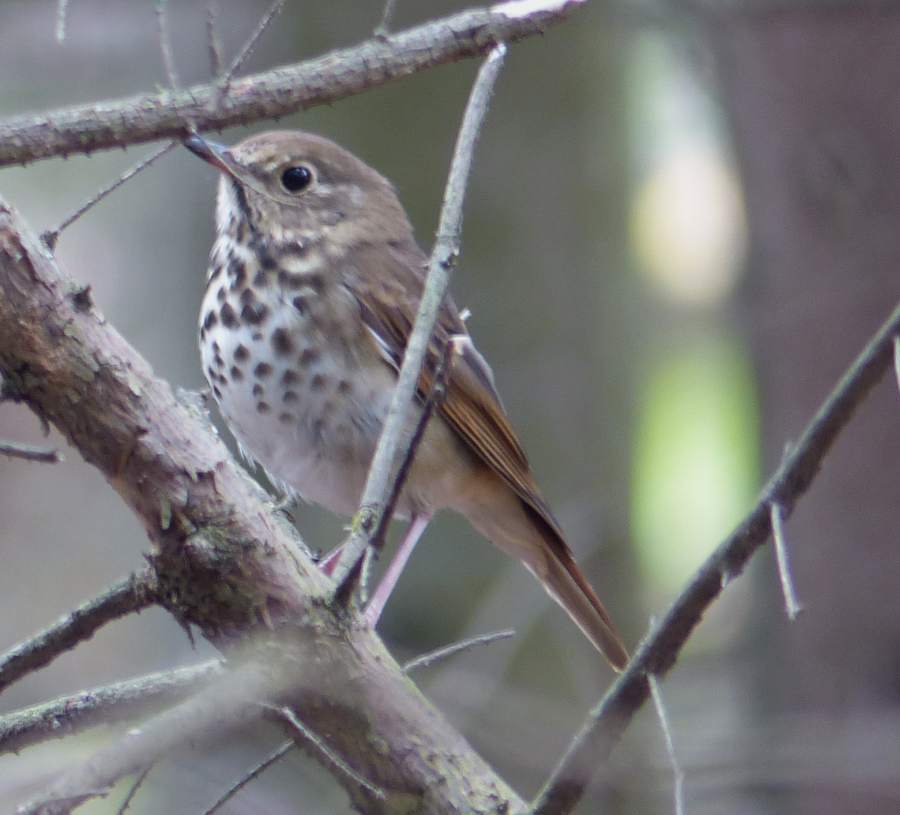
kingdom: Animalia
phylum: Chordata
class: Aves
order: Passeriformes
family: Turdidae
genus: Catharus
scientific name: Catharus guttatus
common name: Hermit thrush
